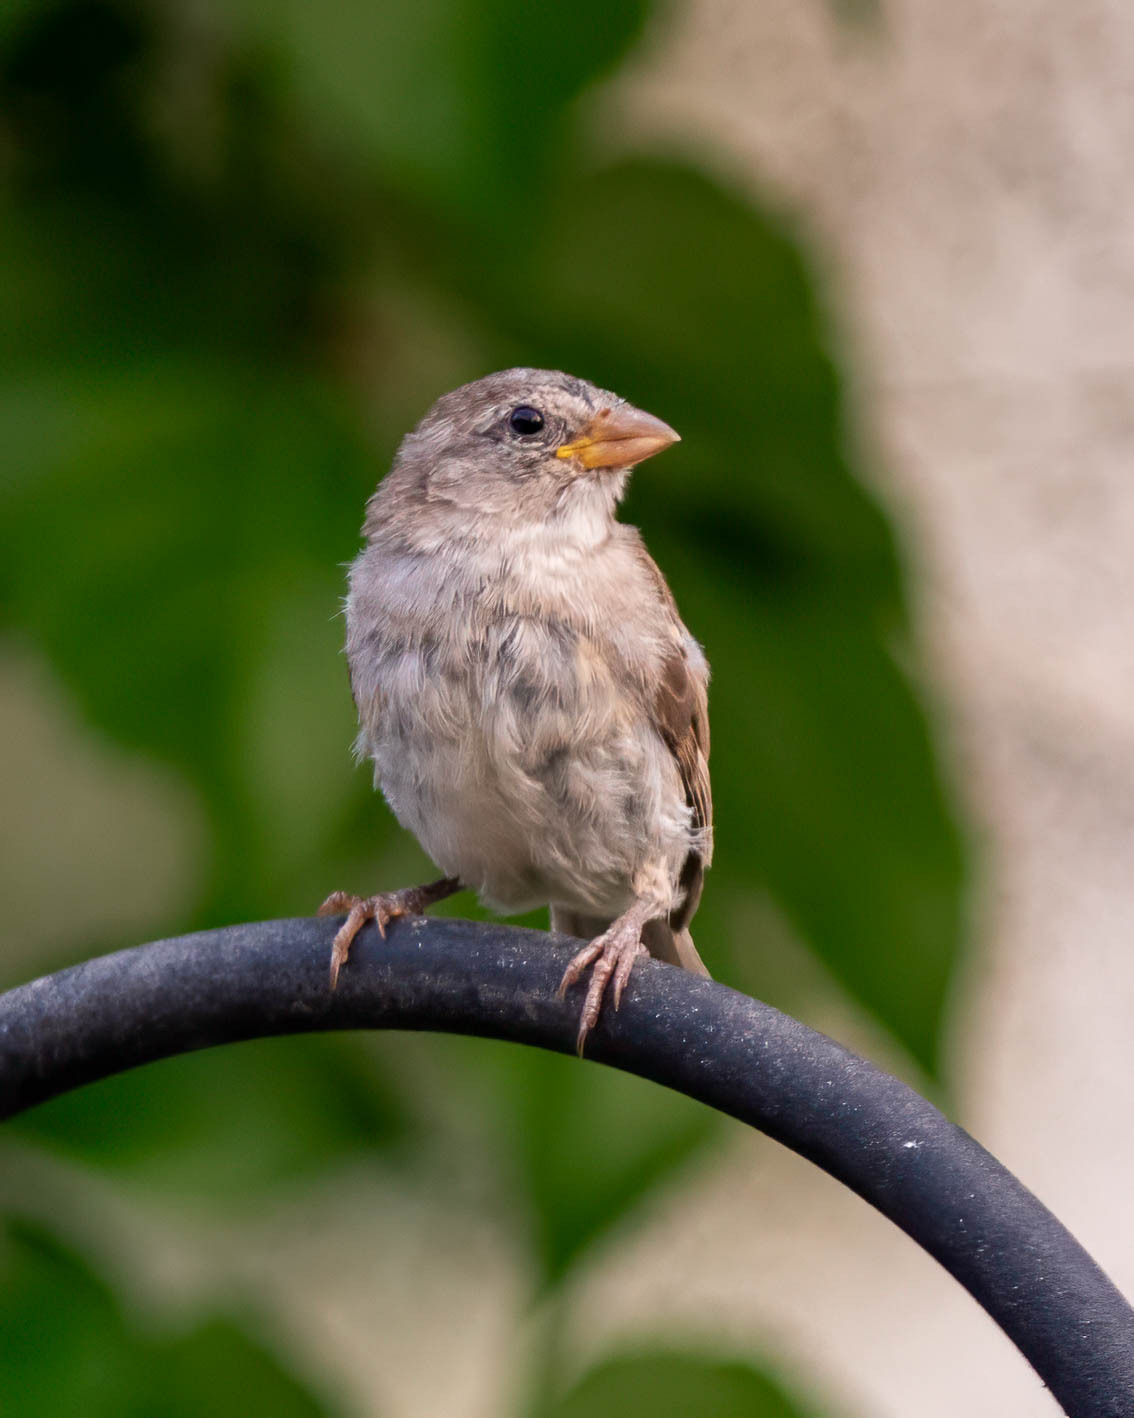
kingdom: Animalia
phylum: Chordata
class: Aves
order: Passeriformes
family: Passeridae
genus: Passer
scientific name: Passer domesticus
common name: House sparrow
